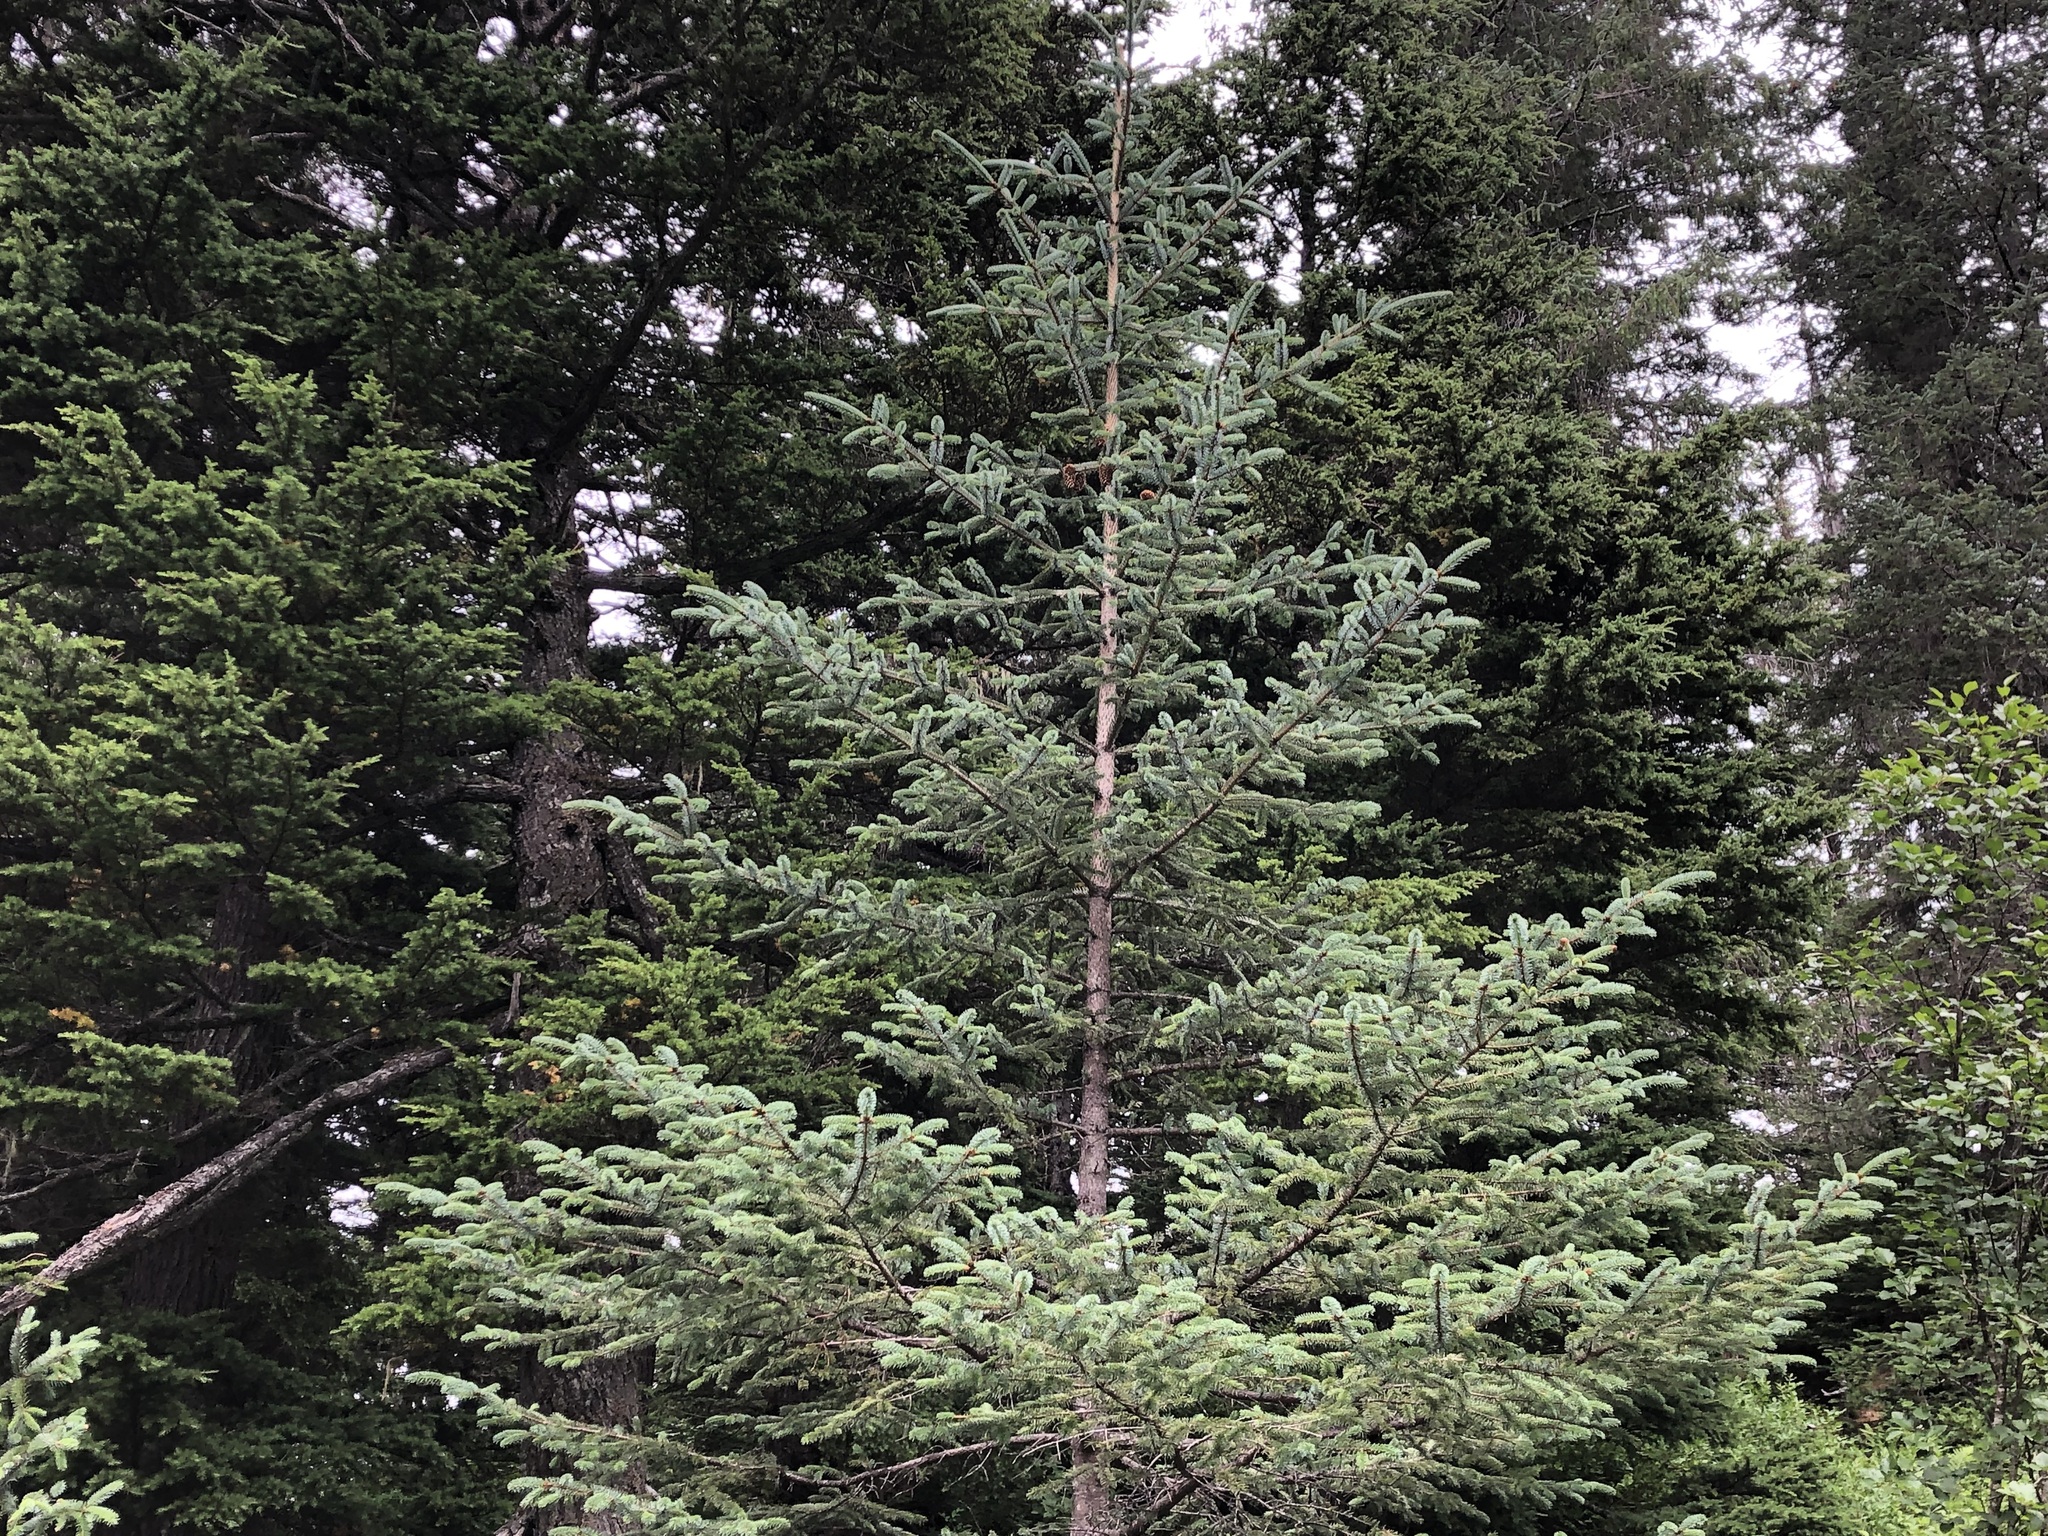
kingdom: Plantae
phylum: Tracheophyta
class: Pinopsida
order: Pinales
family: Pinaceae
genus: Picea
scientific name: Picea sitchensis
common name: Sitka spruce
